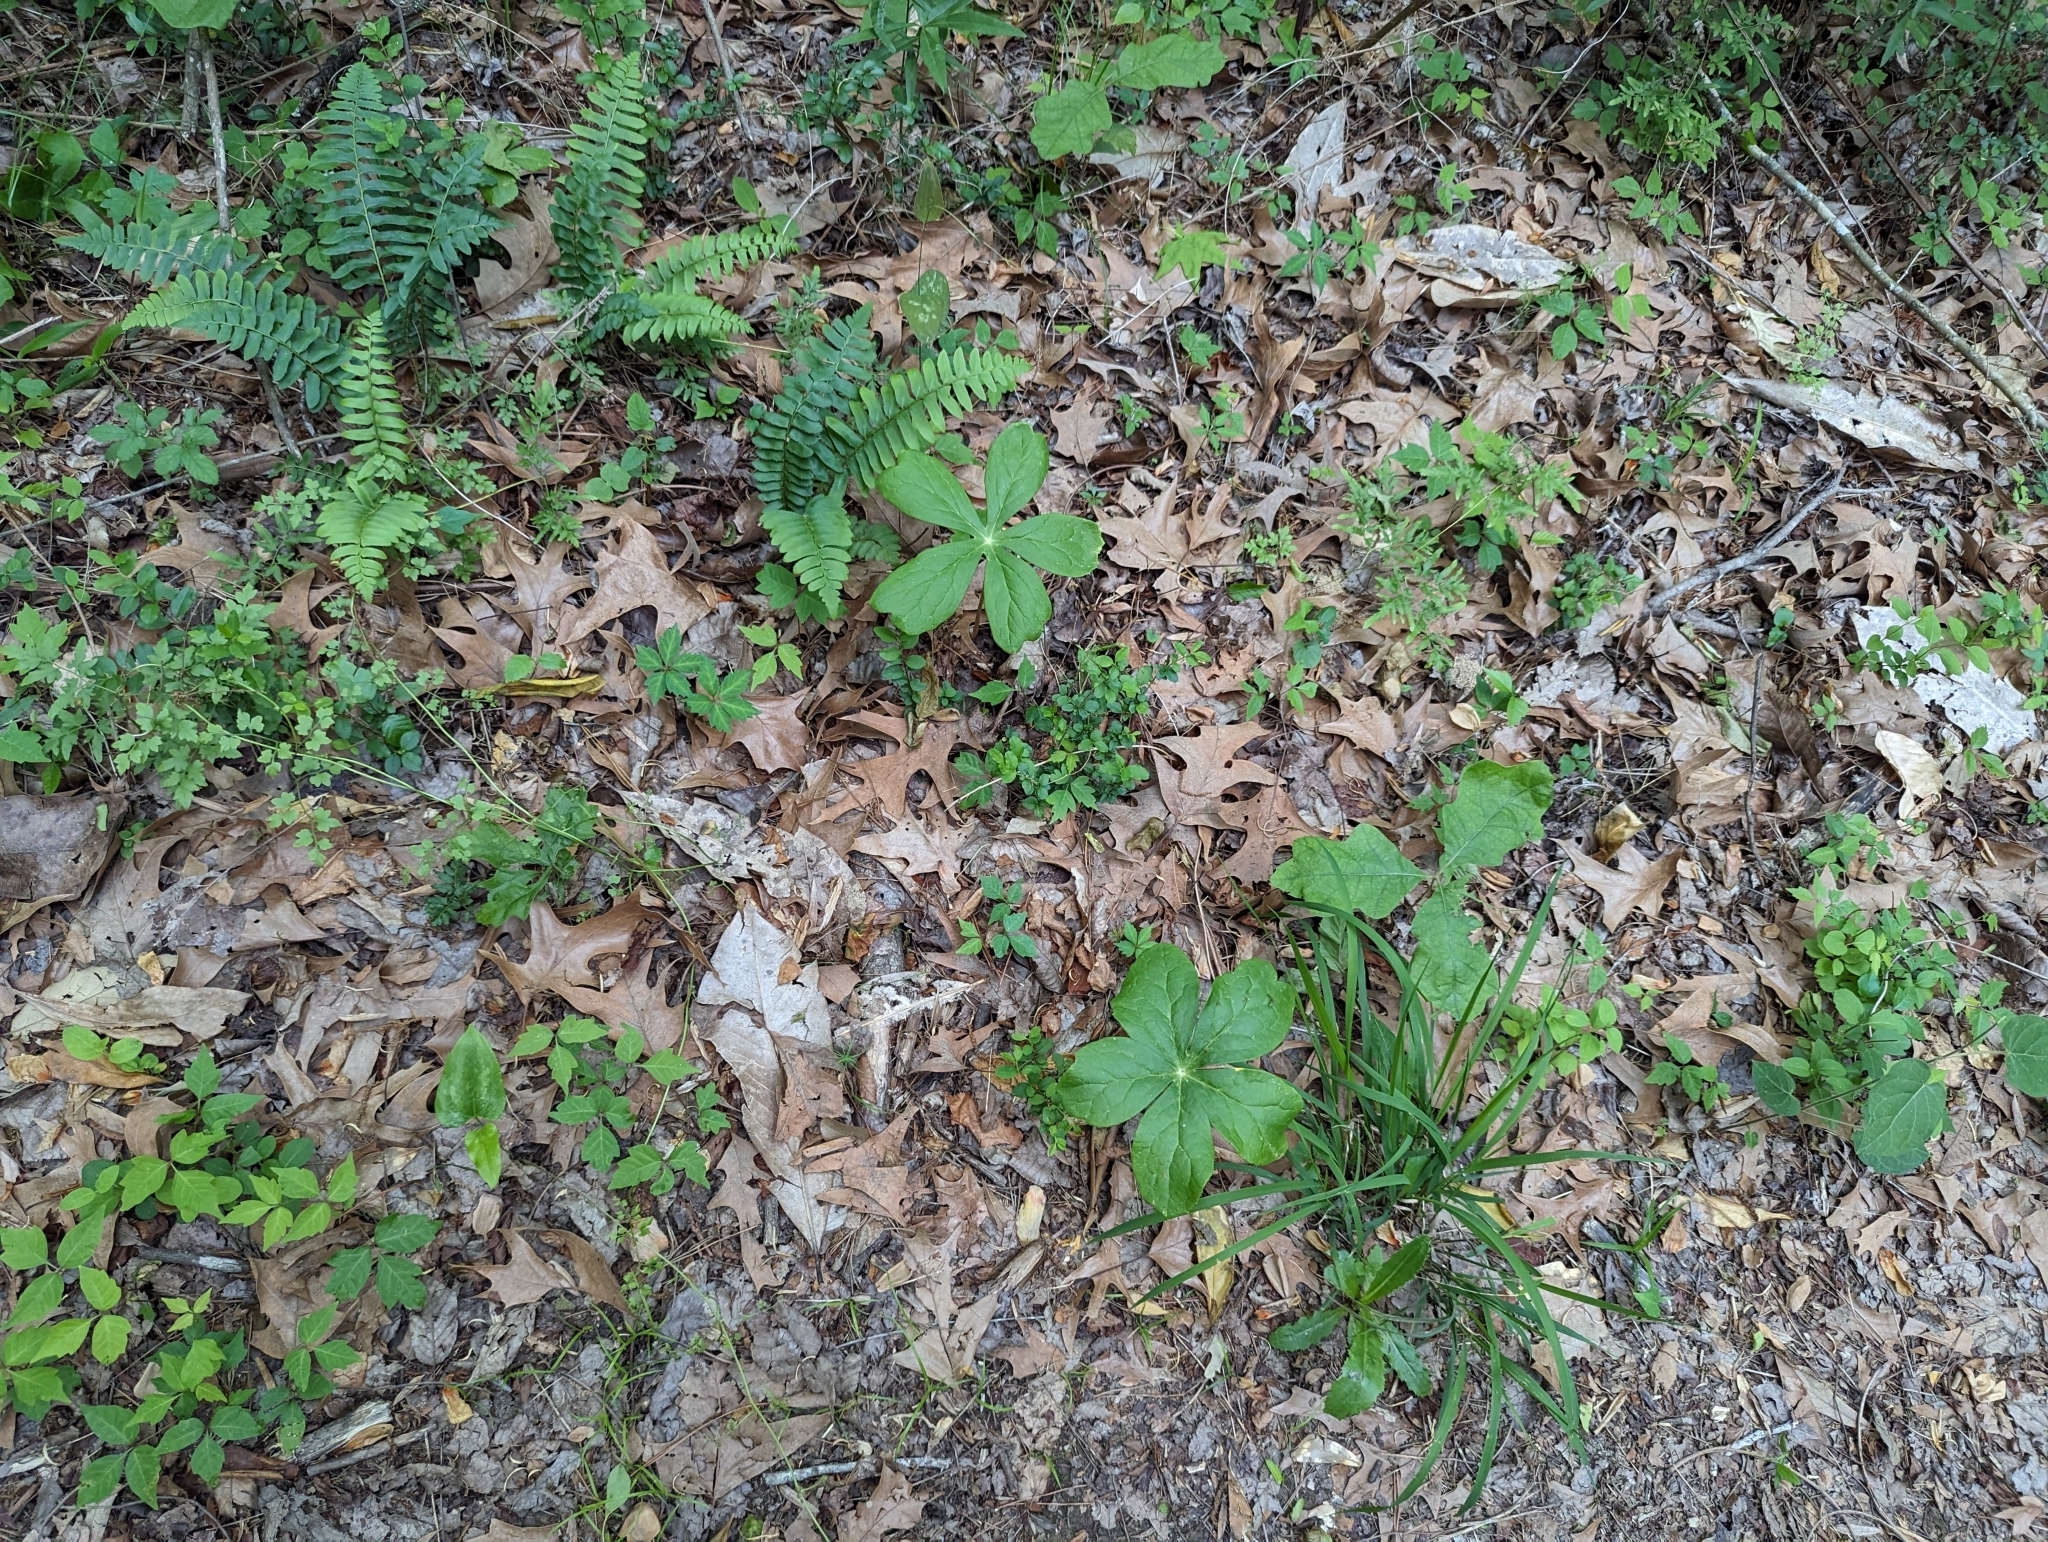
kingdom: Plantae
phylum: Tracheophyta
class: Magnoliopsida
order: Ranunculales
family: Berberidaceae
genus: Podophyllum
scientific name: Podophyllum peltatum
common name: Wild mandrake
